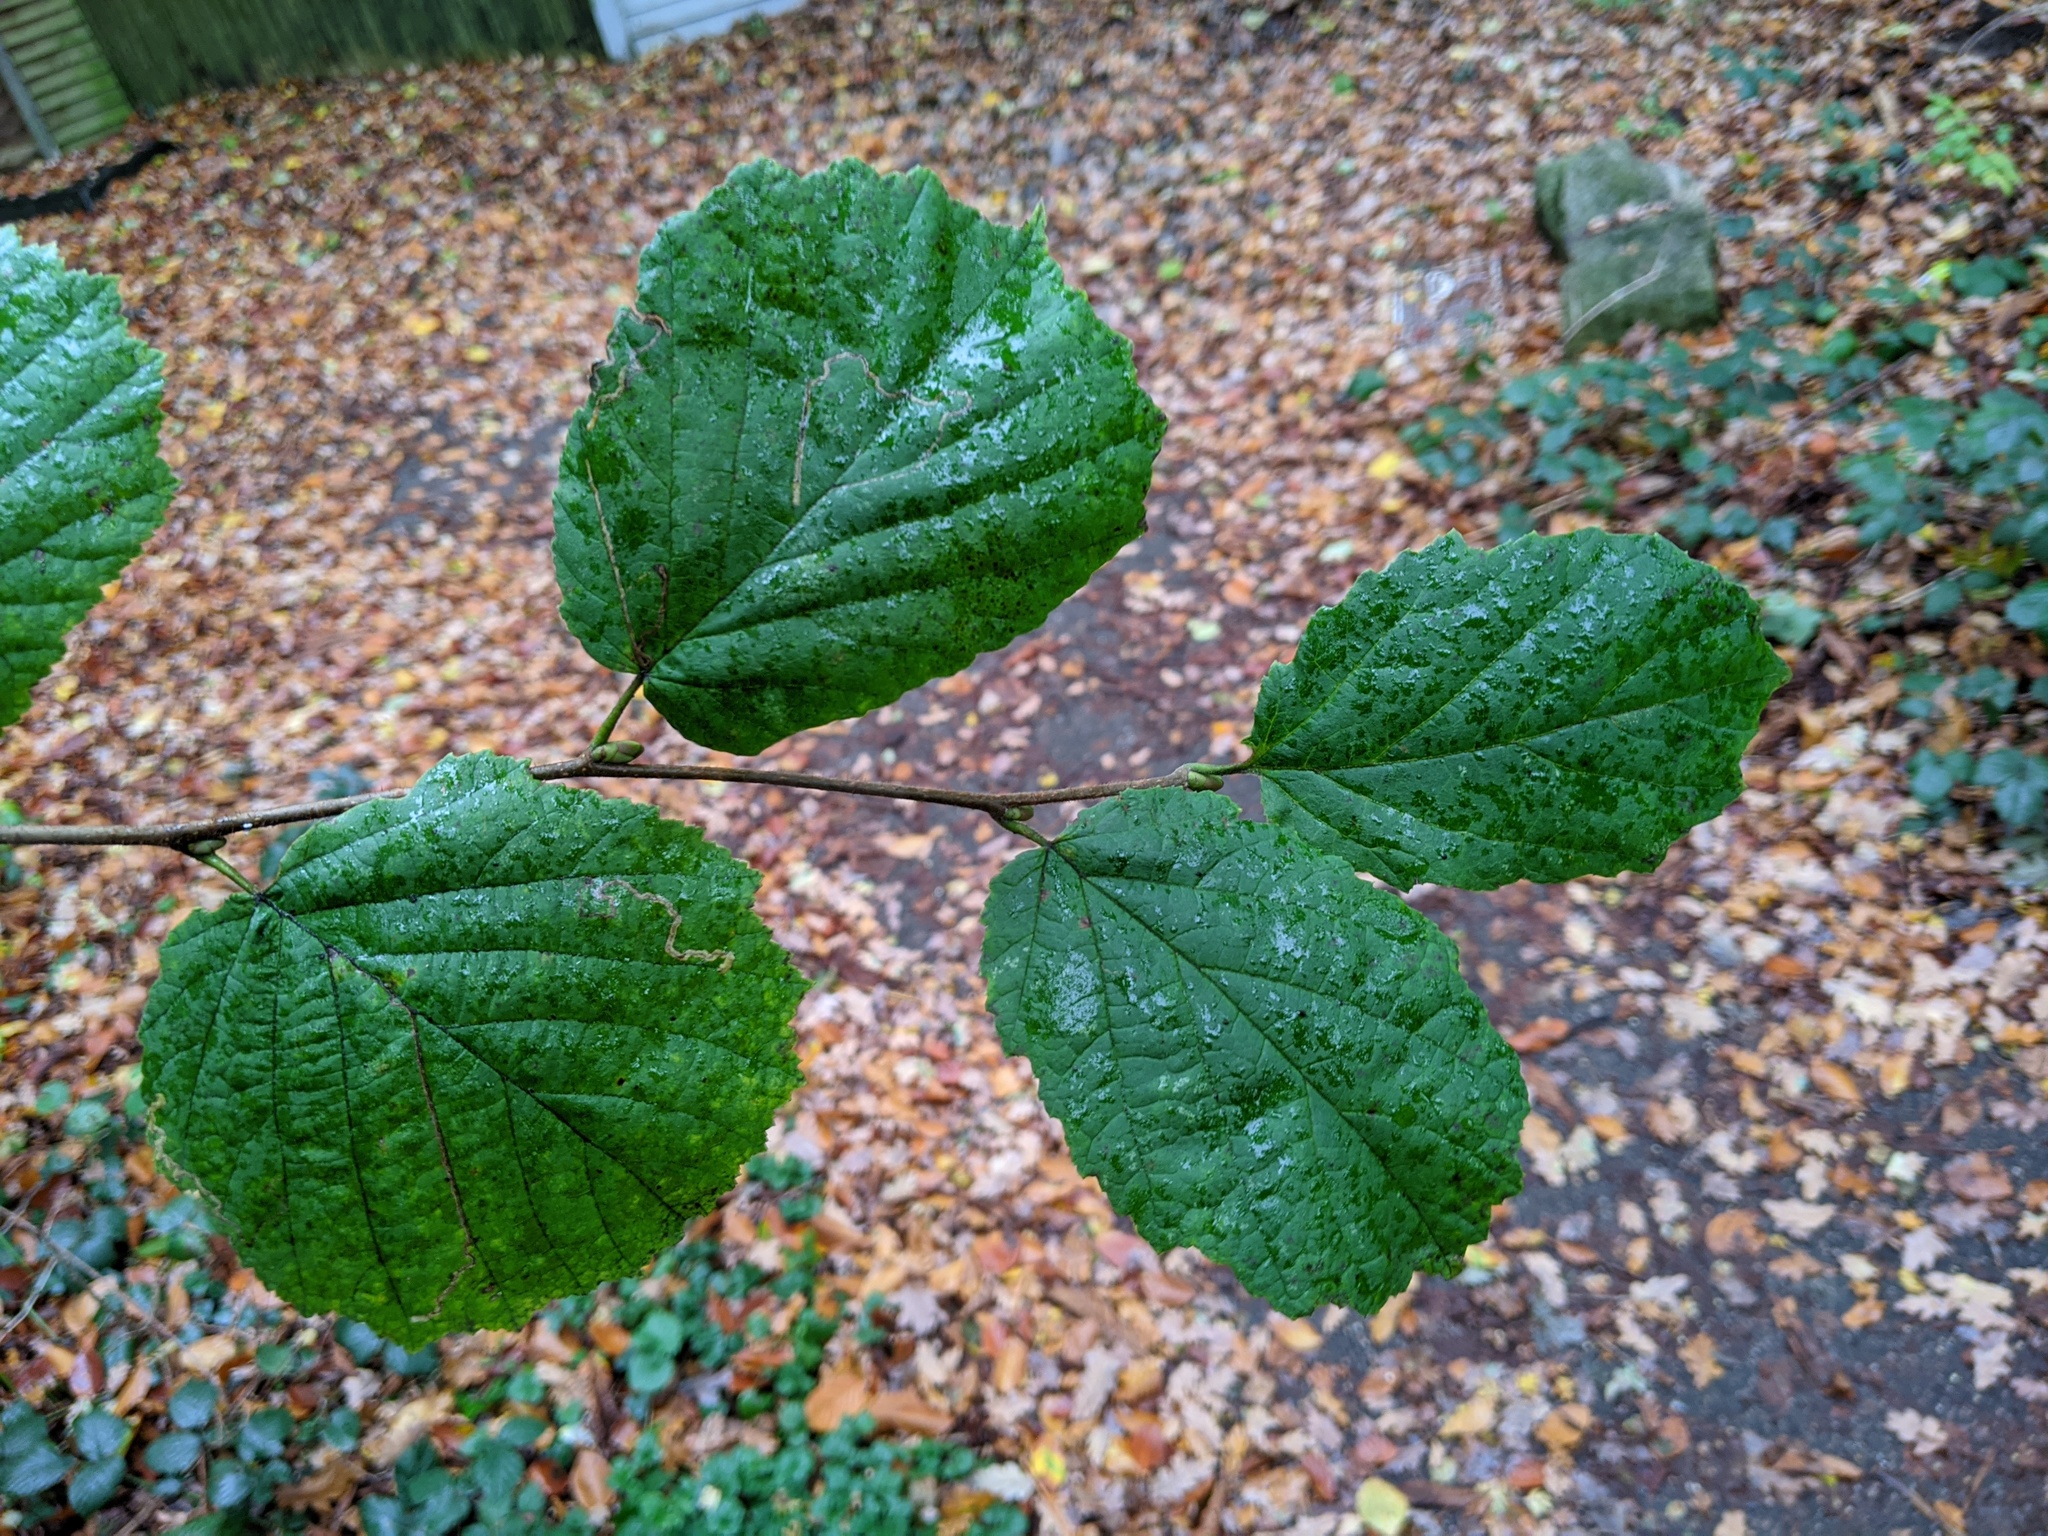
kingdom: Plantae
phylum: Tracheophyta
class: Magnoliopsida
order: Fagales
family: Betulaceae
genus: Corylus
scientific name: Corylus avellana
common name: European hazel
